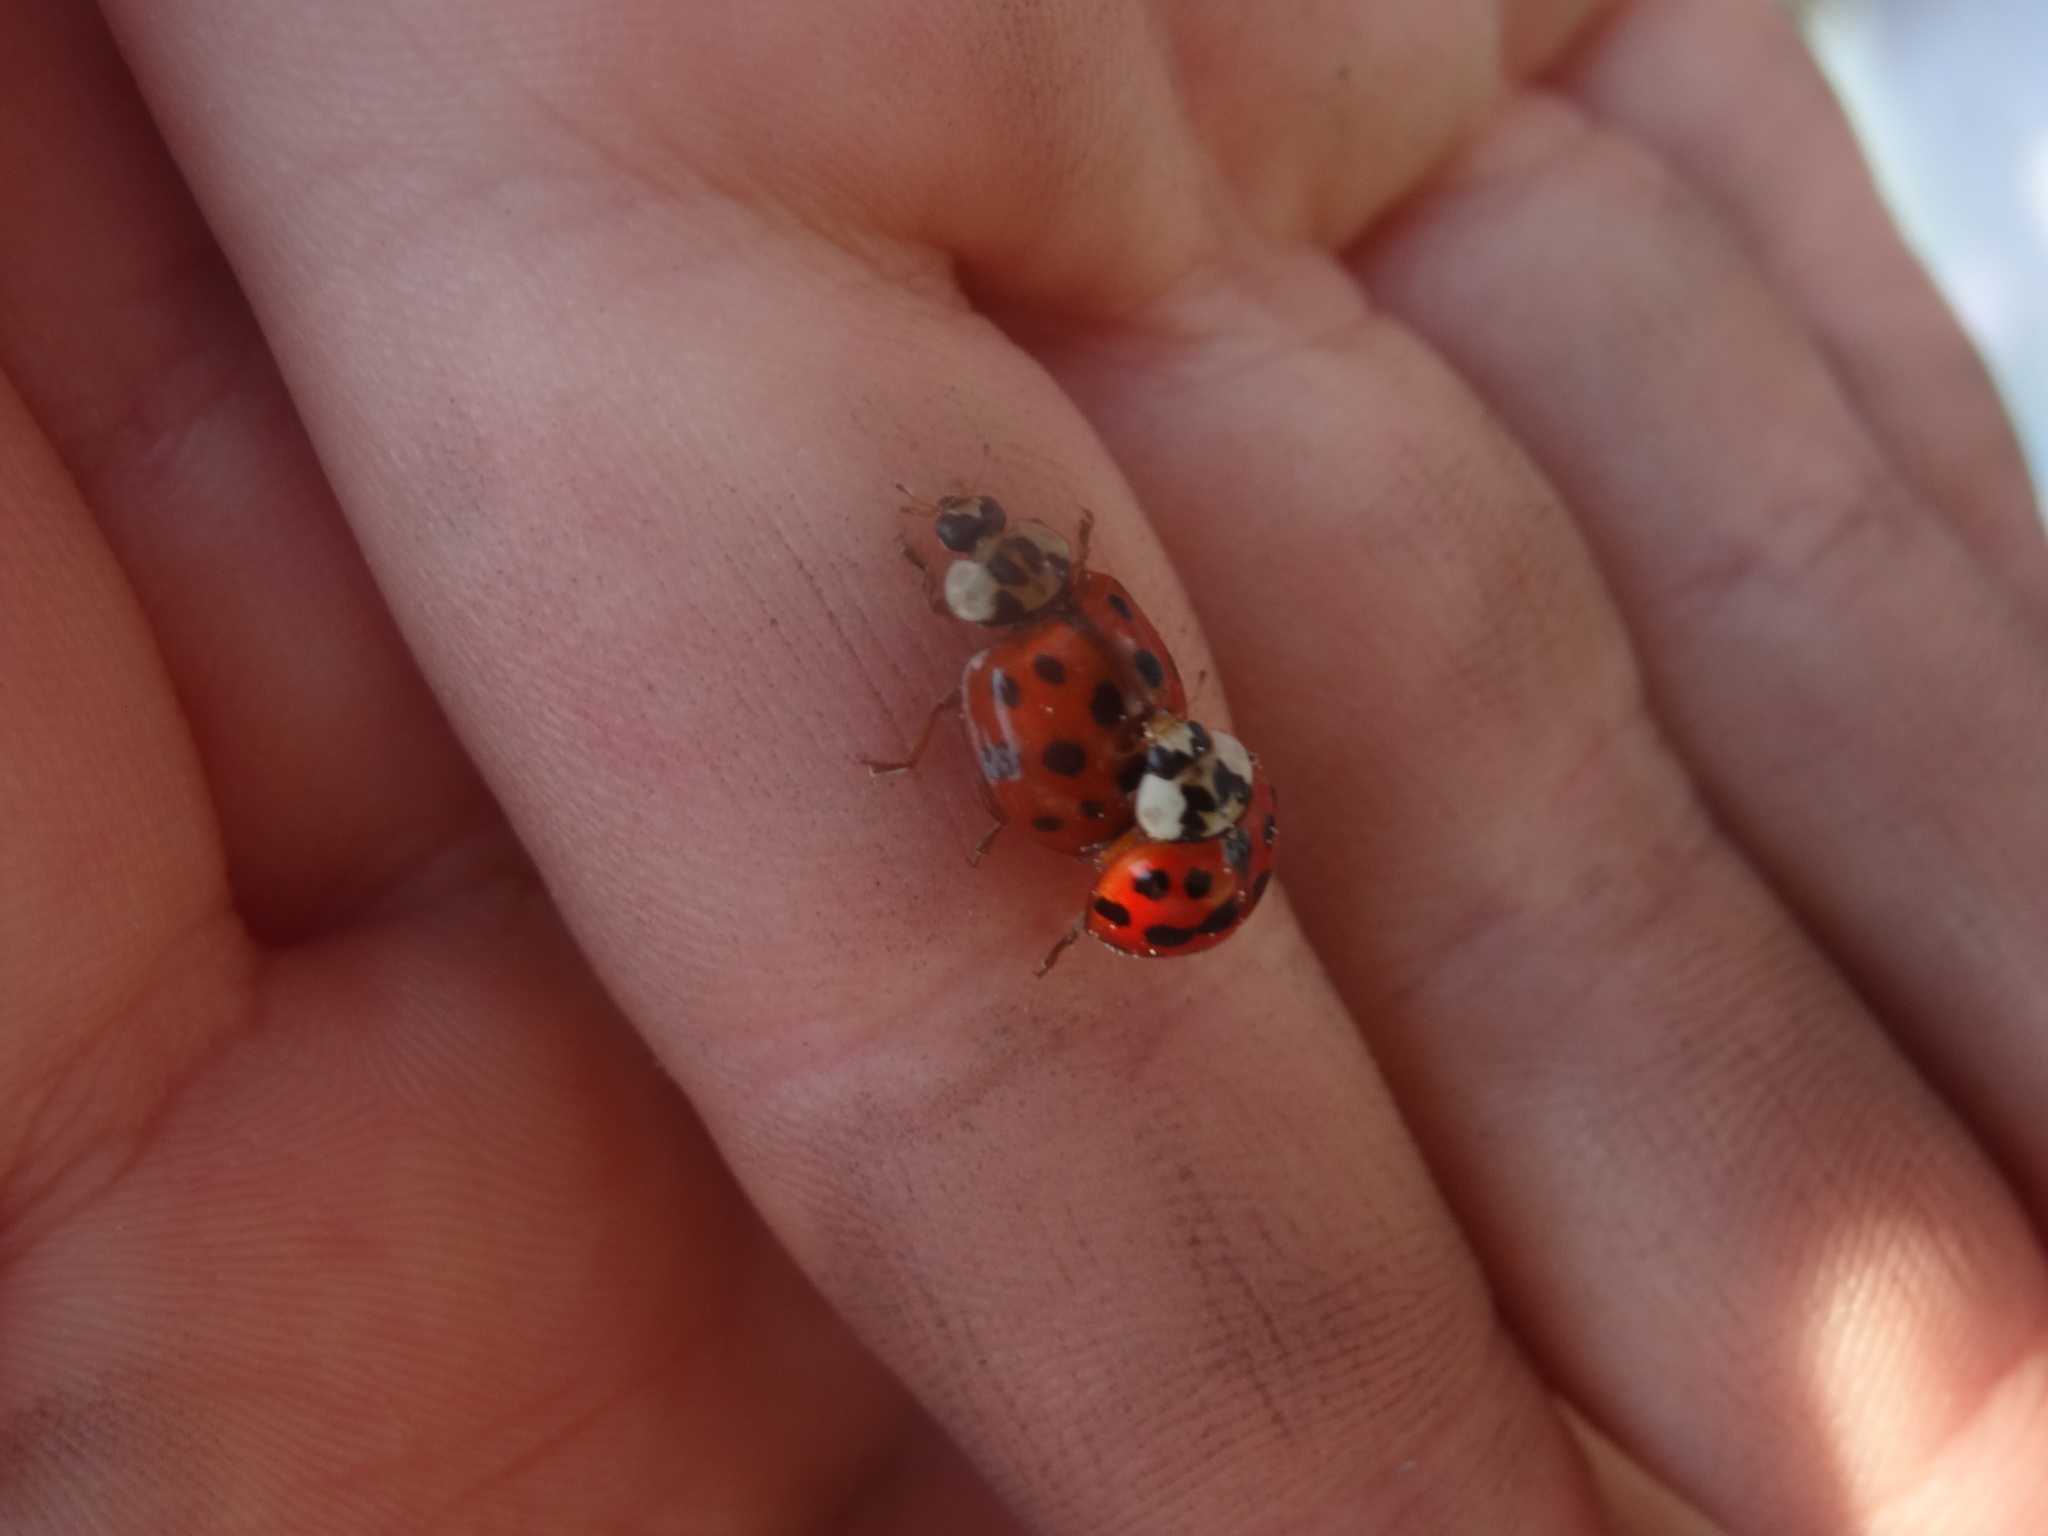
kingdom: Animalia
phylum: Arthropoda
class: Insecta
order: Coleoptera
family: Coccinellidae
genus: Harmonia
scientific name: Harmonia axyridis
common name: Harlequin ladybird
